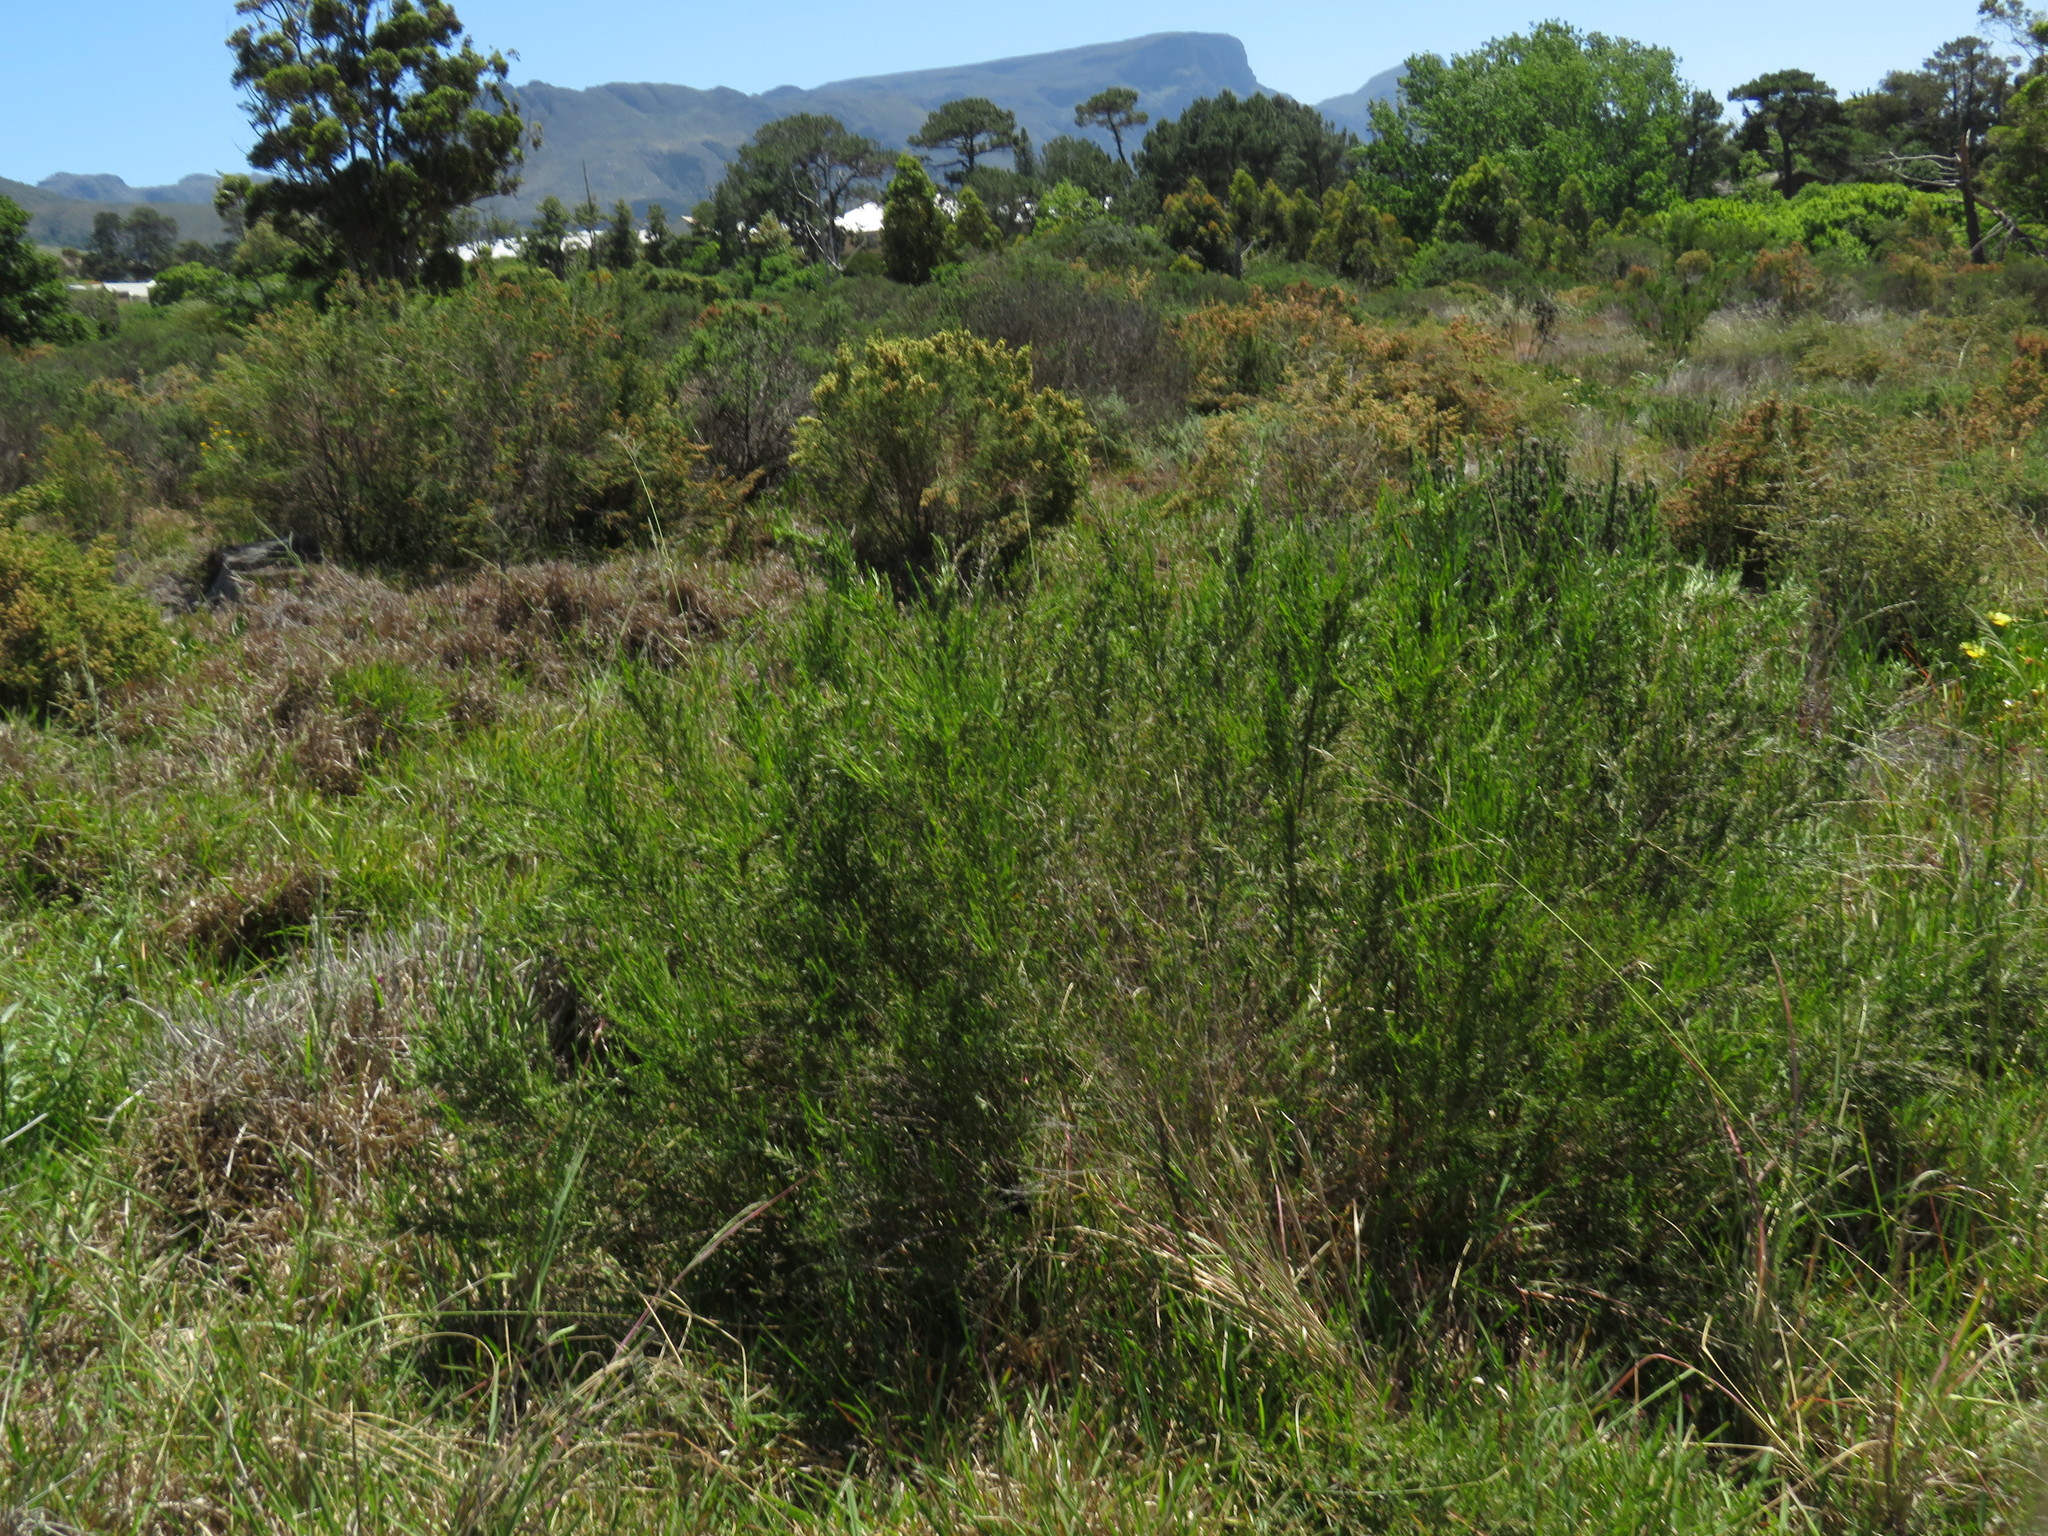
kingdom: Plantae
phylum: Tracheophyta
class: Magnoliopsida
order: Rosales
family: Rosaceae
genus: Cliffortia
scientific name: Cliffortia strobilifera
